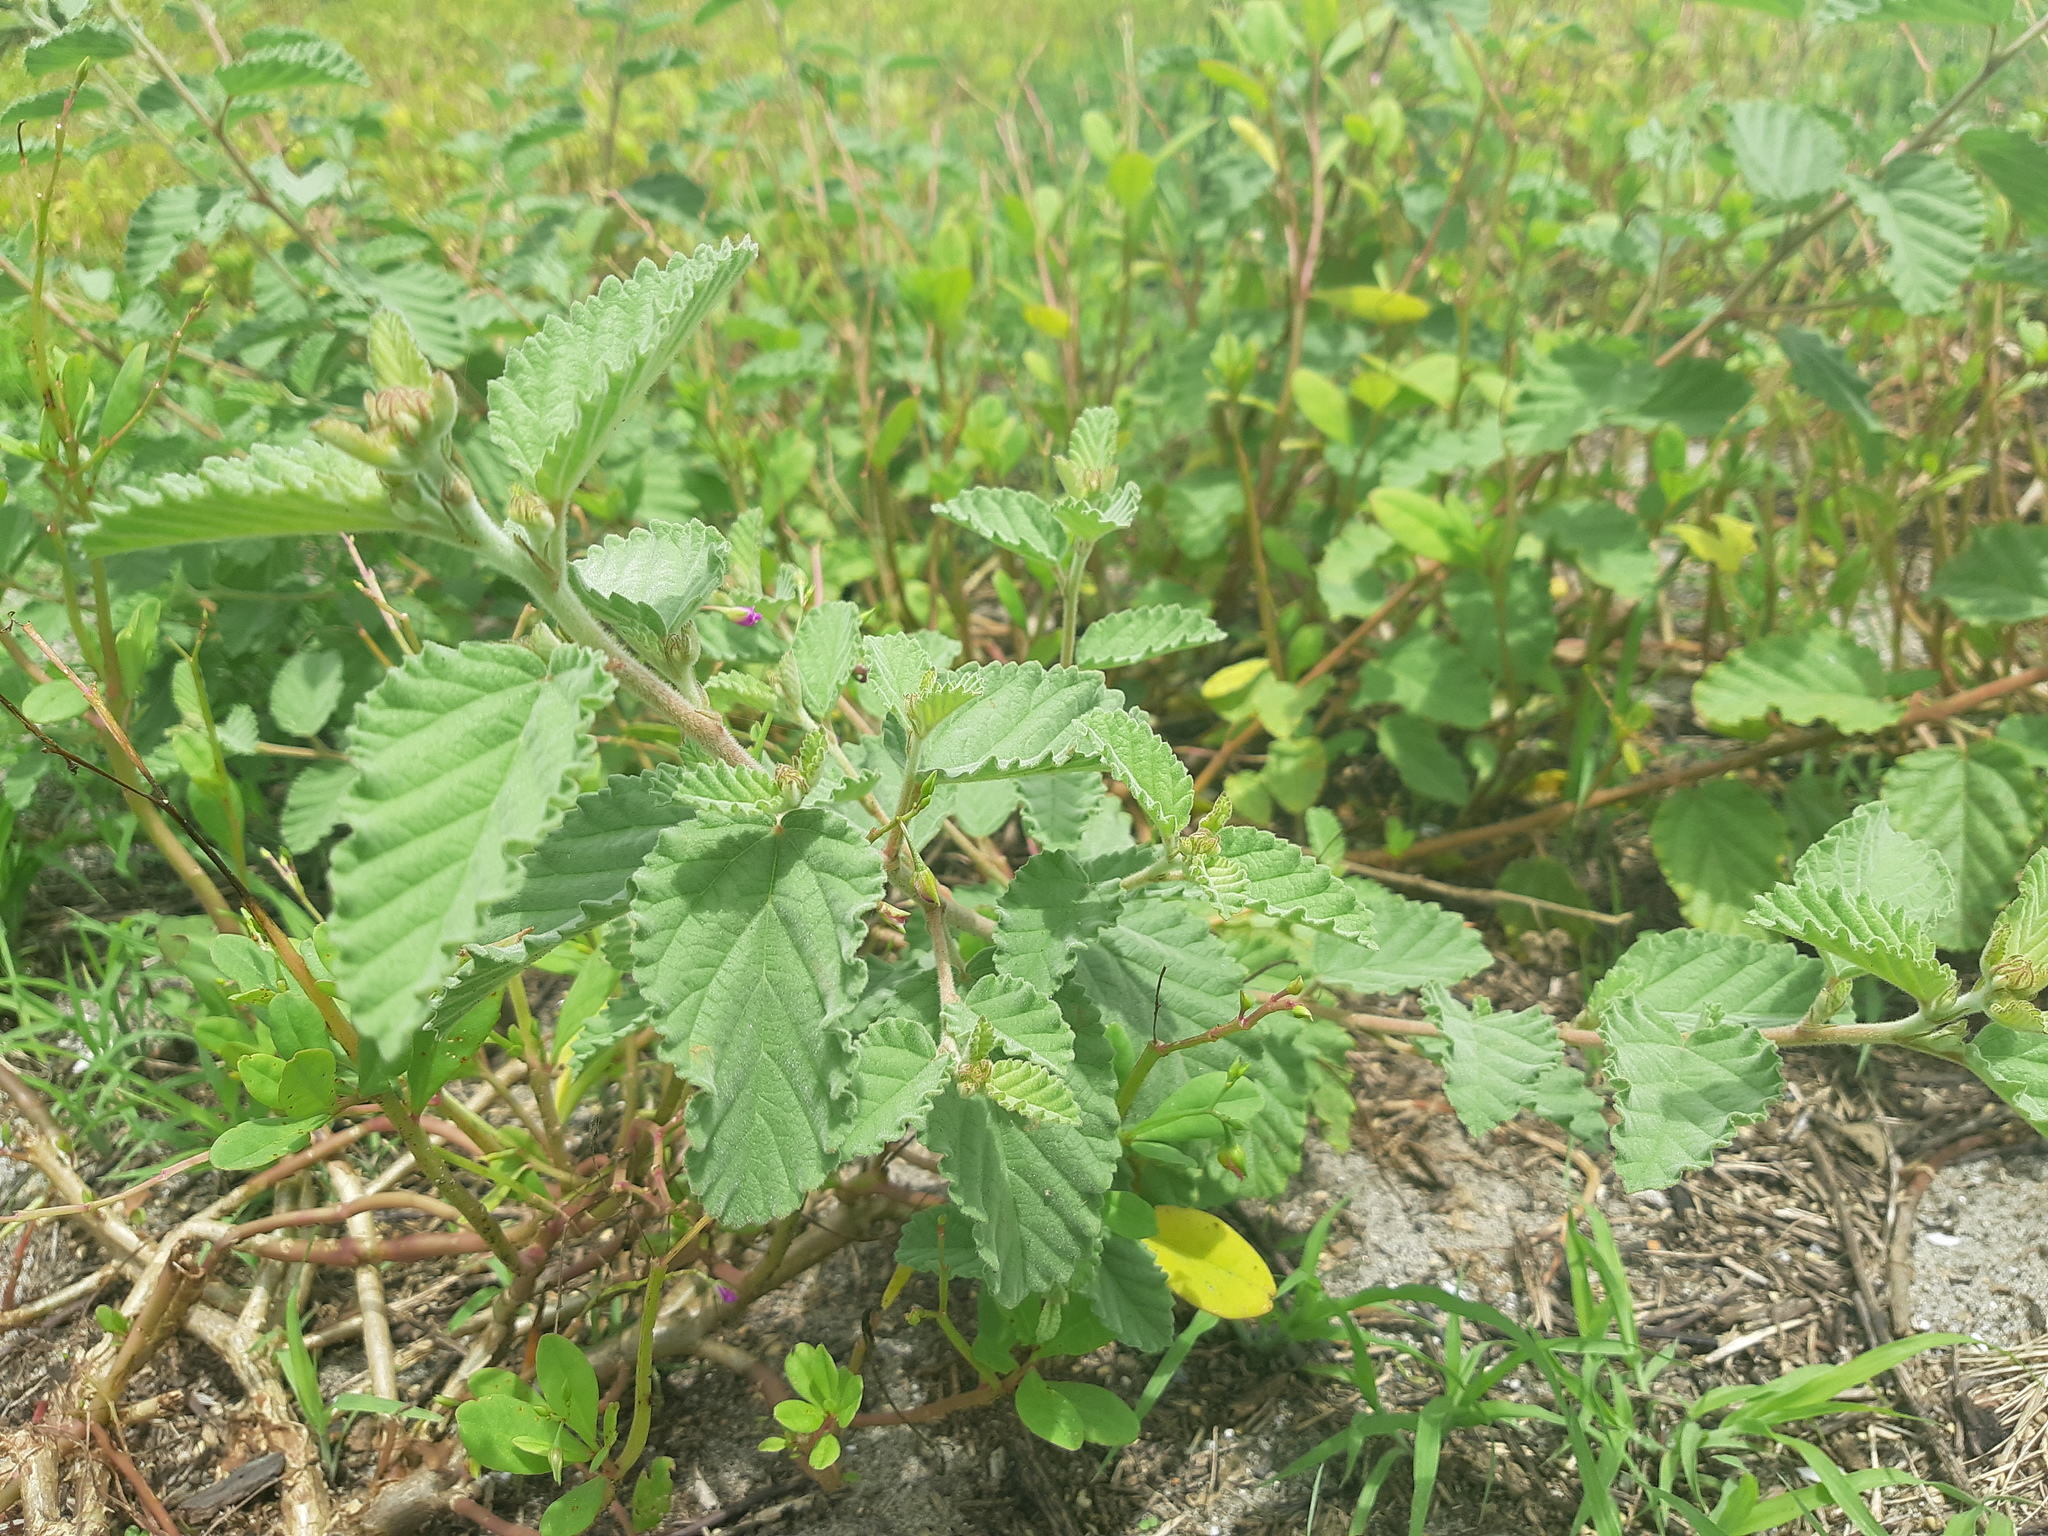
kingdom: Plantae
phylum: Tracheophyta
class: Magnoliopsida
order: Malvales
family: Malvaceae
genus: Waltheria
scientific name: Waltheria ovata
